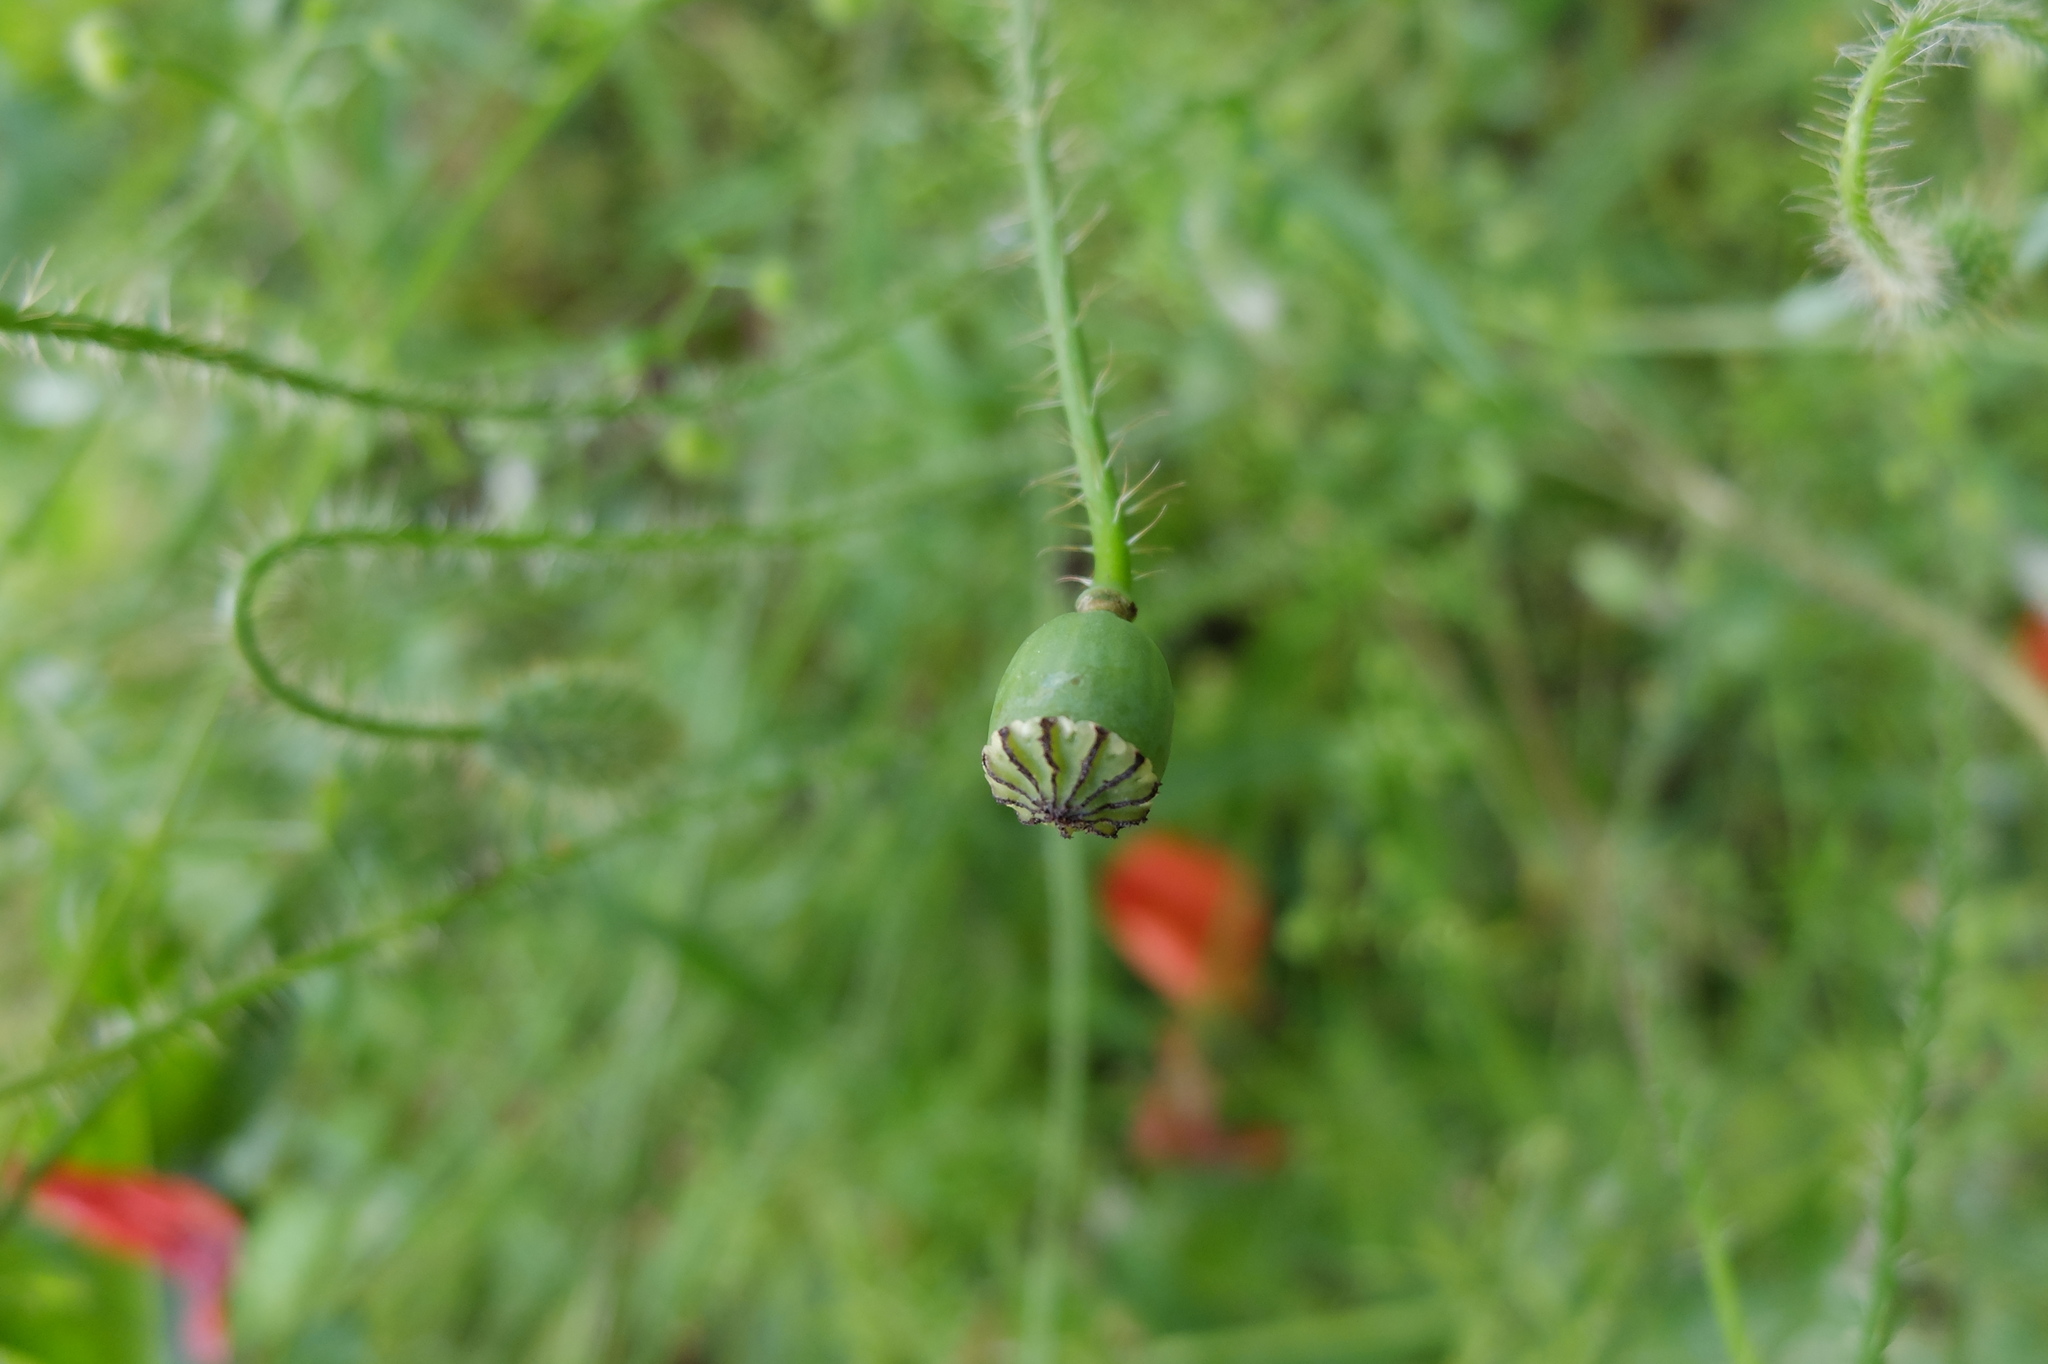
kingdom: Plantae
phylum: Tracheophyta
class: Magnoliopsida
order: Ranunculales
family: Papaveraceae
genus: Papaver
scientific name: Papaver rhoeas
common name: Corn poppy
